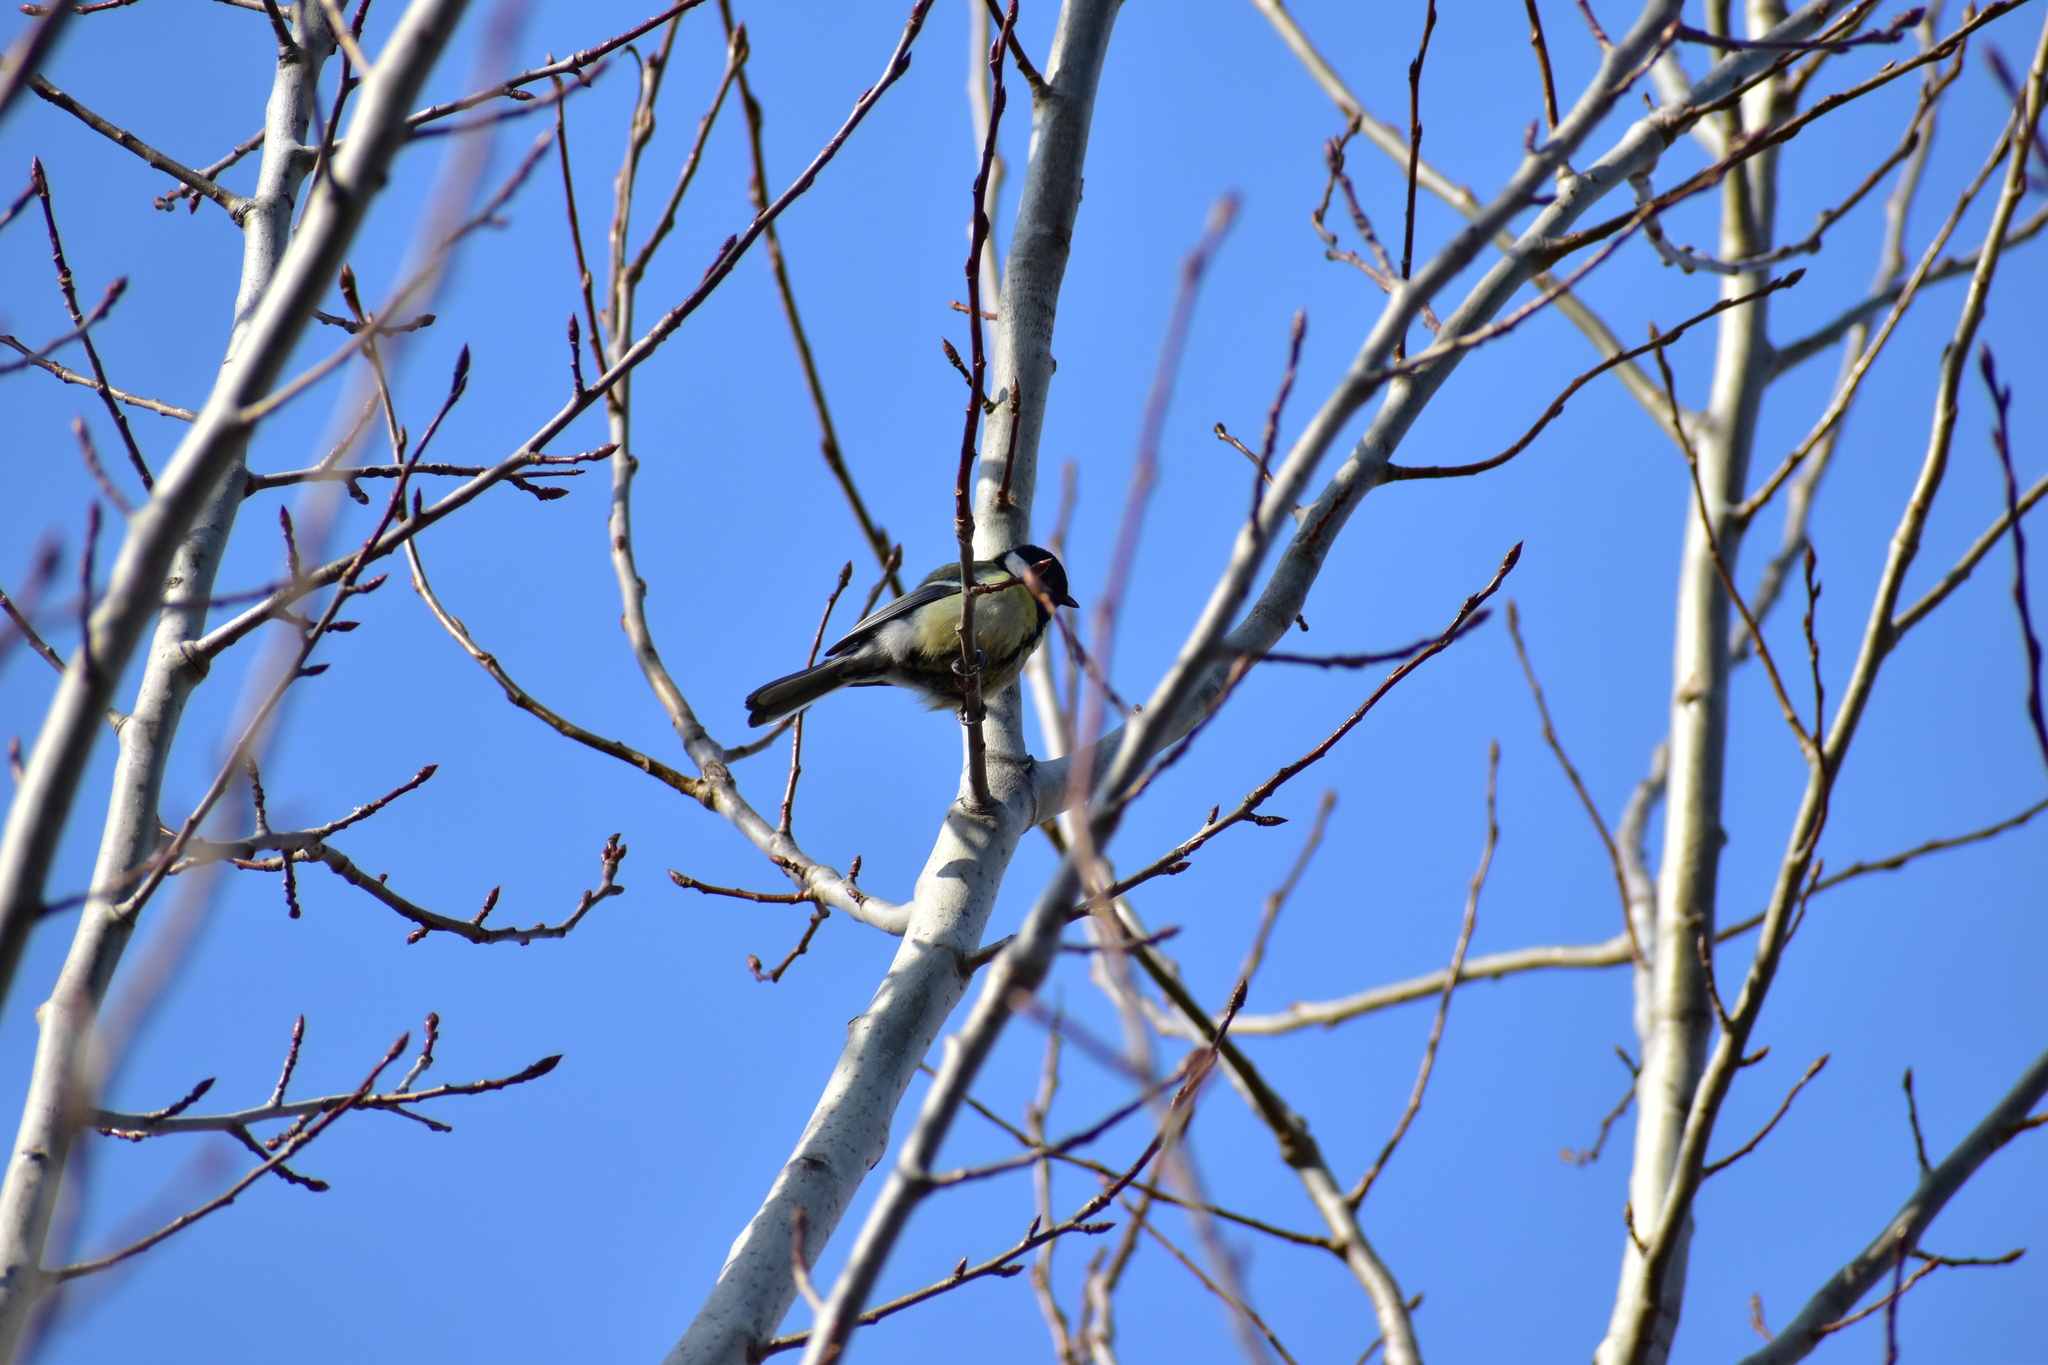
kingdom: Animalia
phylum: Chordata
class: Aves
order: Passeriformes
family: Paridae
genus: Parus
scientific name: Parus major
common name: Great tit
